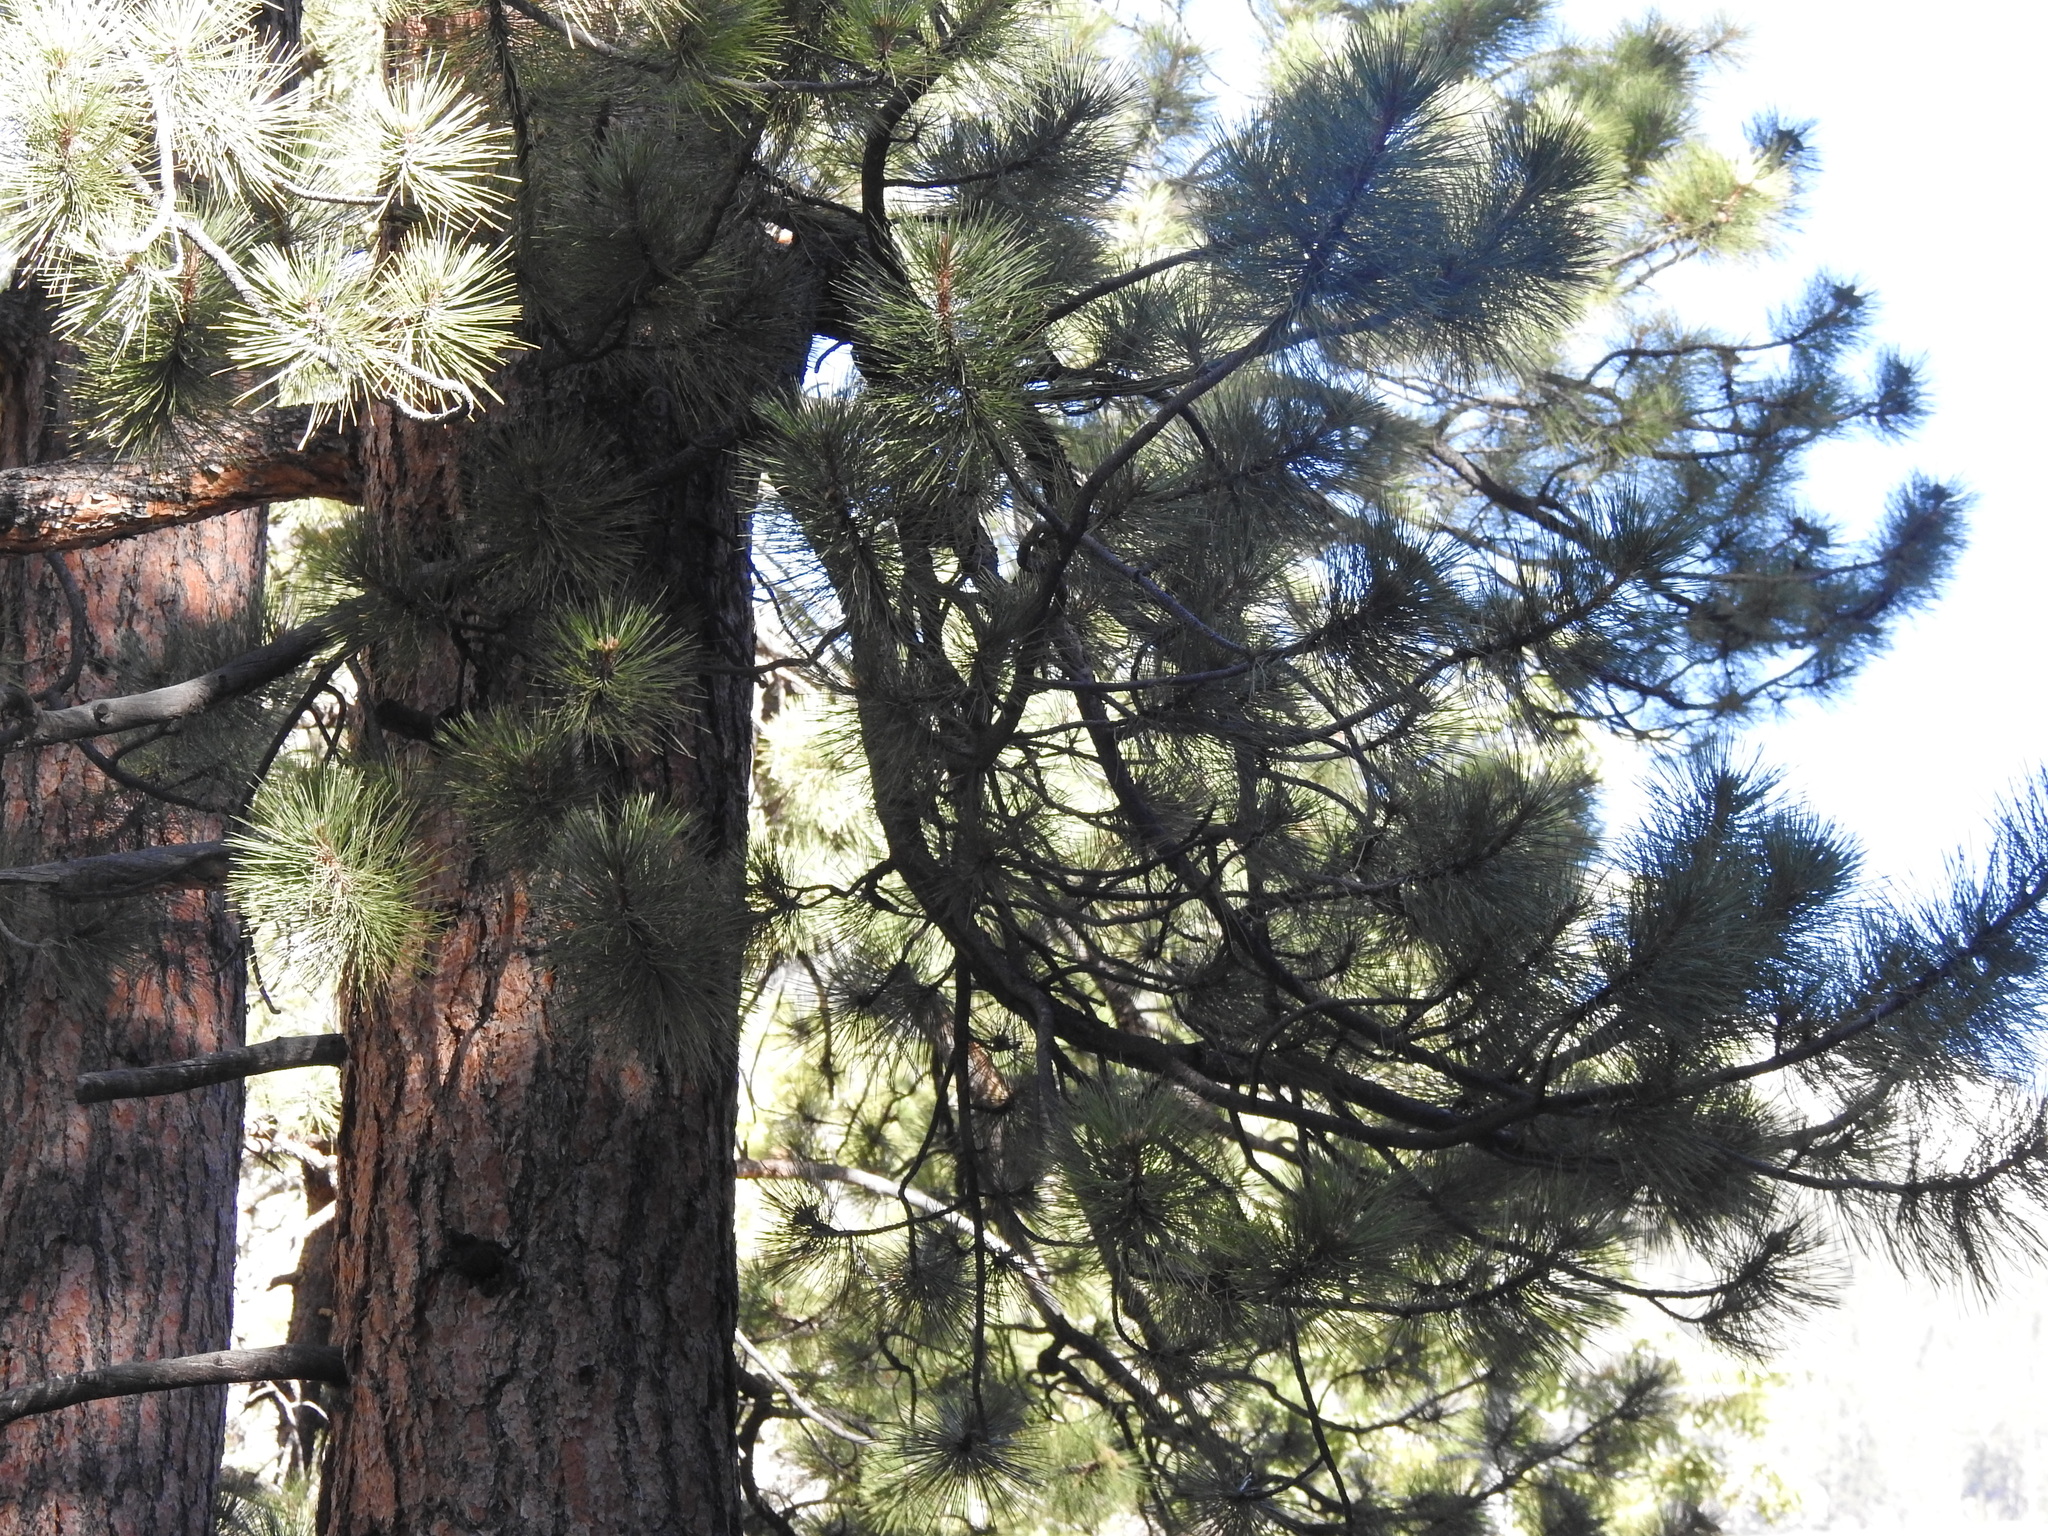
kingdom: Plantae
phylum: Tracheophyta
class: Pinopsida
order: Pinales
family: Pinaceae
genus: Pinus
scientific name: Pinus ponderosa
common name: Western yellow-pine
